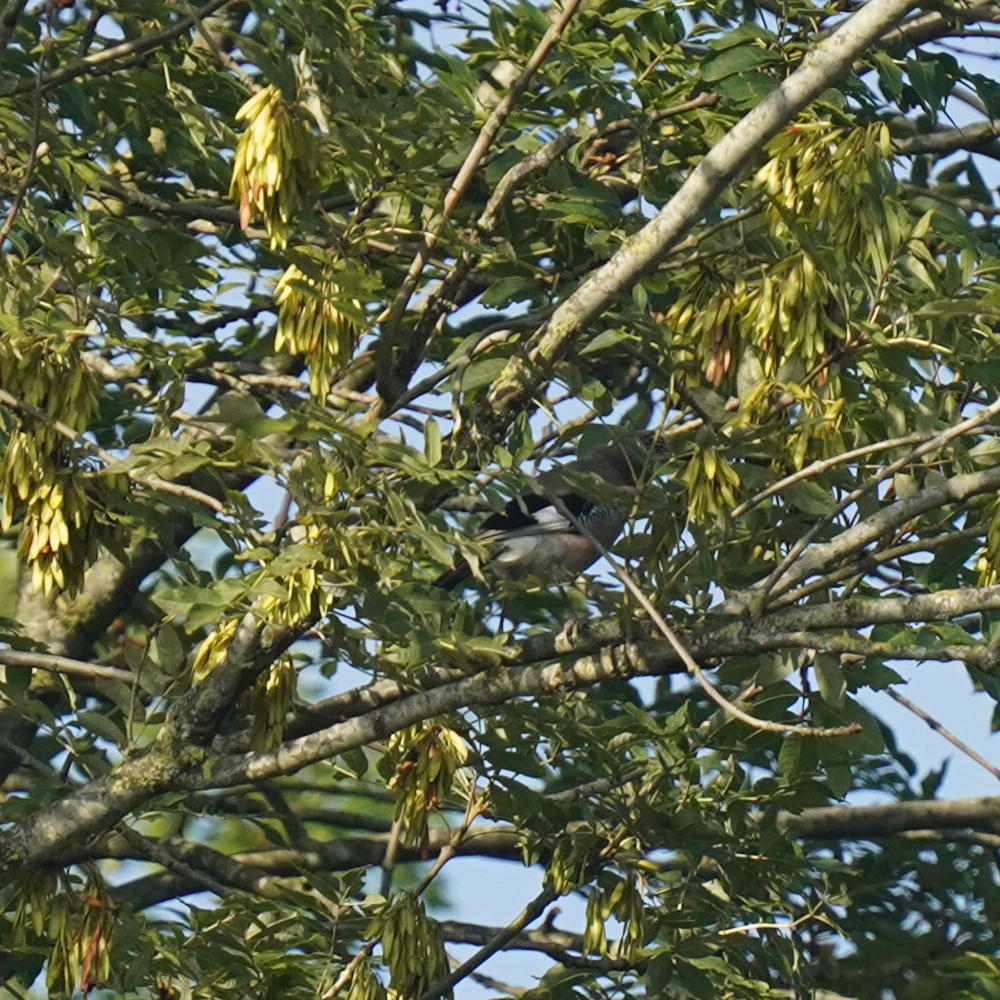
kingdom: Animalia
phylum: Chordata
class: Aves
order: Passeriformes
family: Corvidae
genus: Garrulus
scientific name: Garrulus glandarius
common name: Eurasian jay
